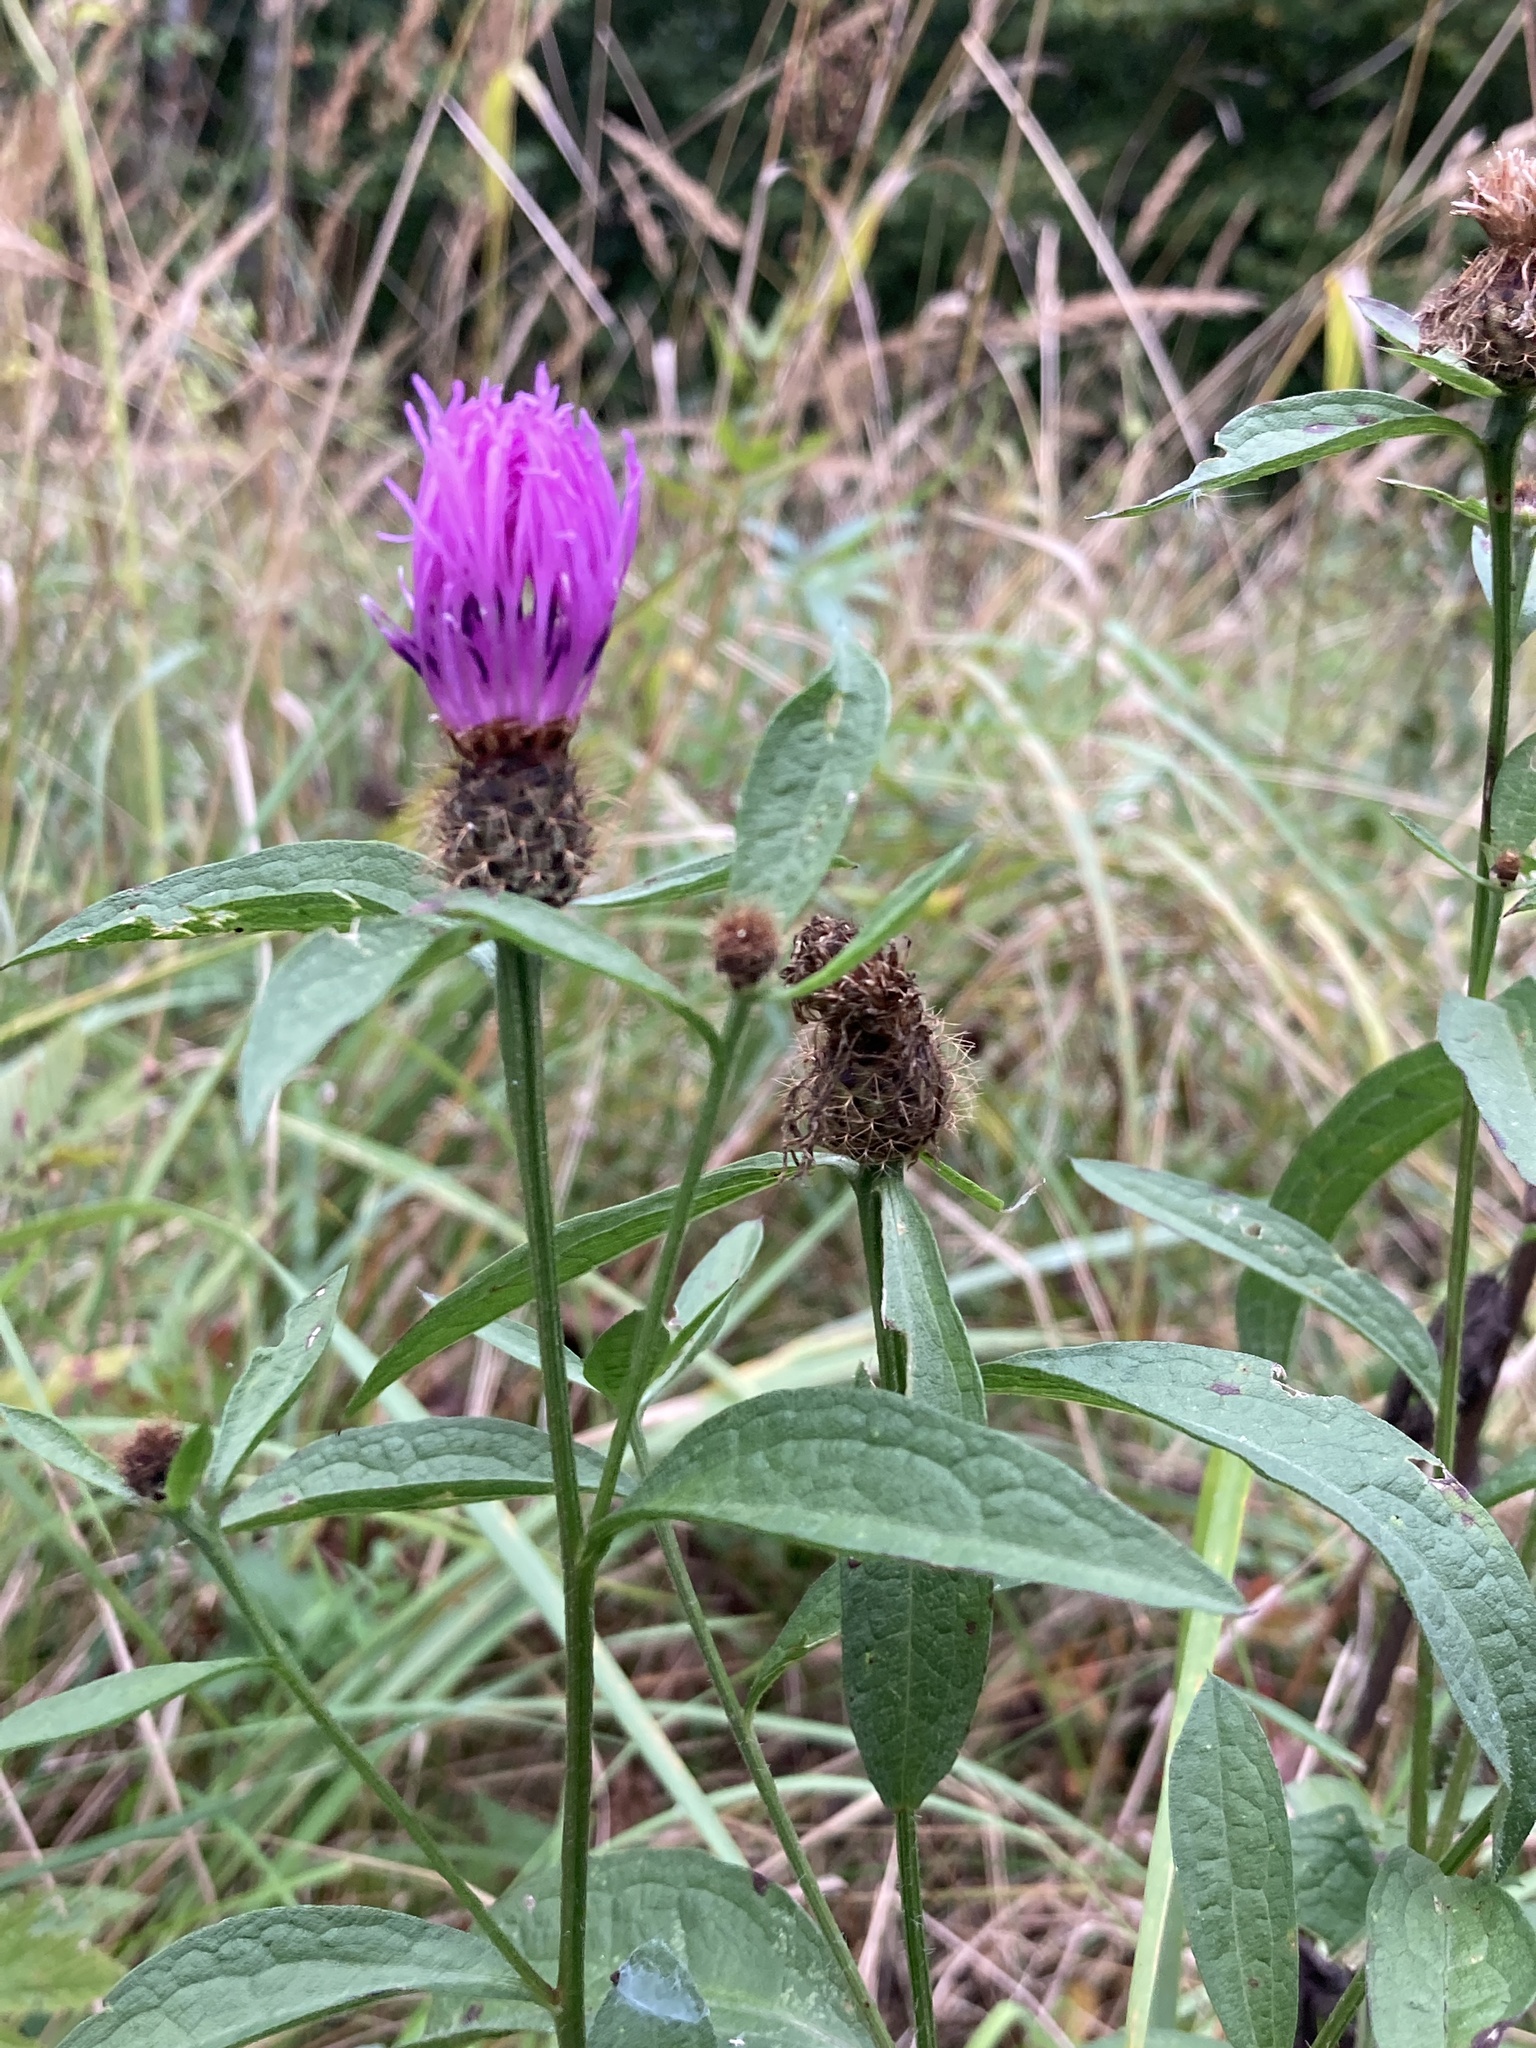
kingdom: Plantae
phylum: Tracheophyta
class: Magnoliopsida
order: Asterales
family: Asteraceae
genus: Centaurea
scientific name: Centaurea phrygia
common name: Wig knapweed
